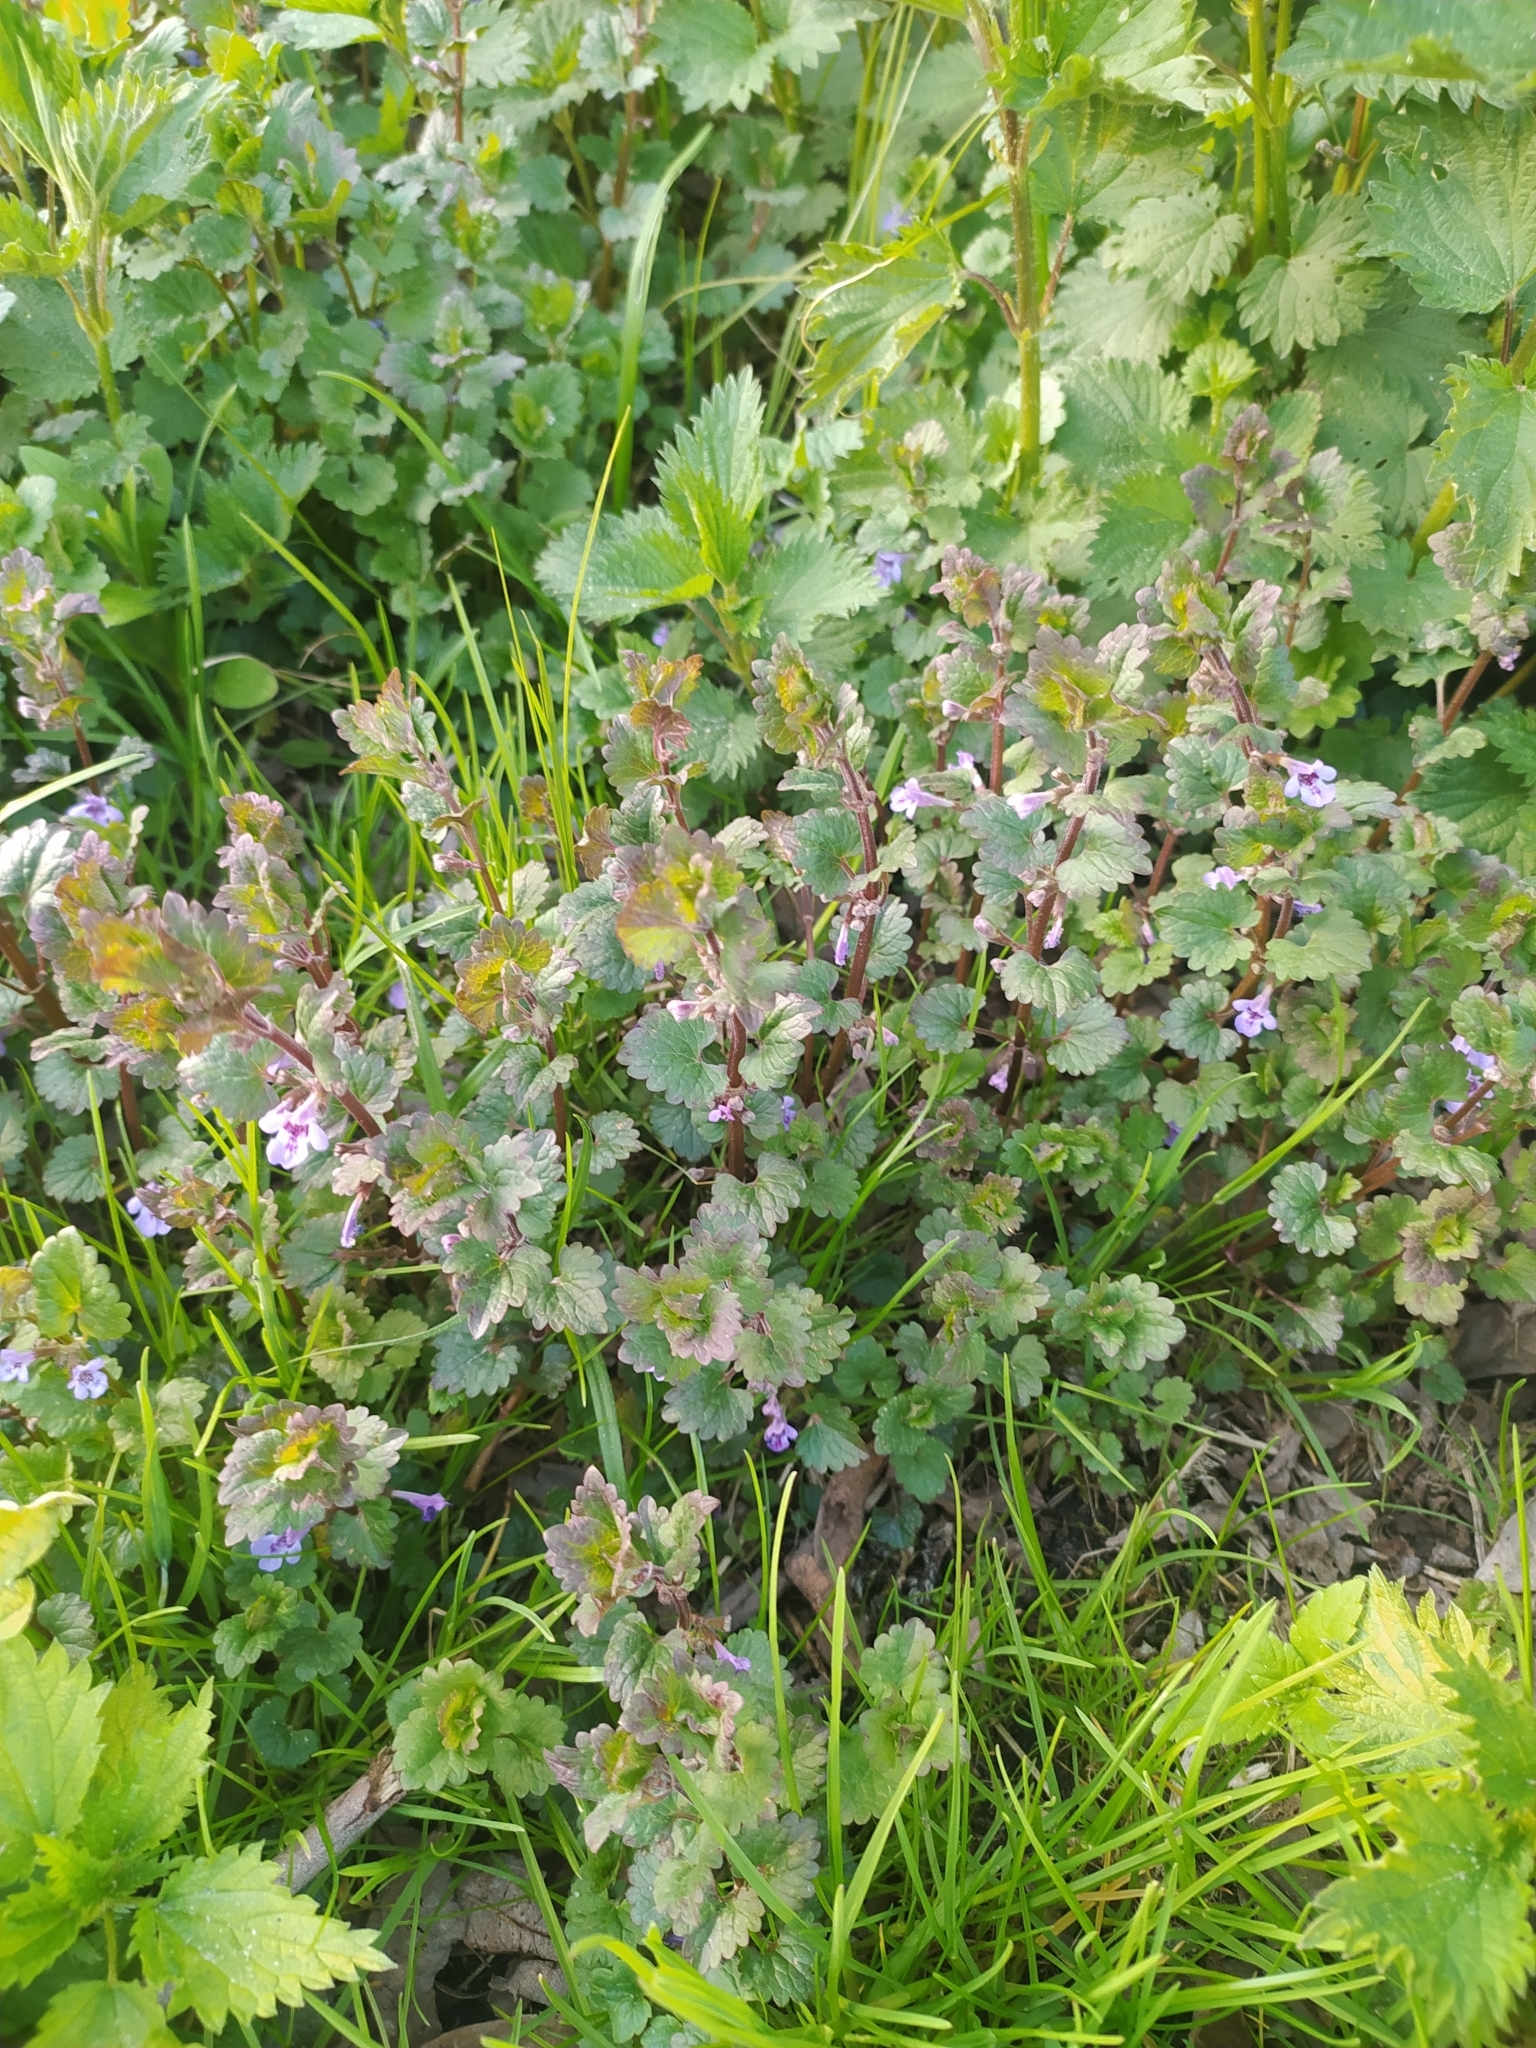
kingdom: Plantae
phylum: Tracheophyta
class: Magnoliopsida
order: Lamiales
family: Lamiaceae
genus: Glechoma
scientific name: Glechoma hederacea
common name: Ground ivy
